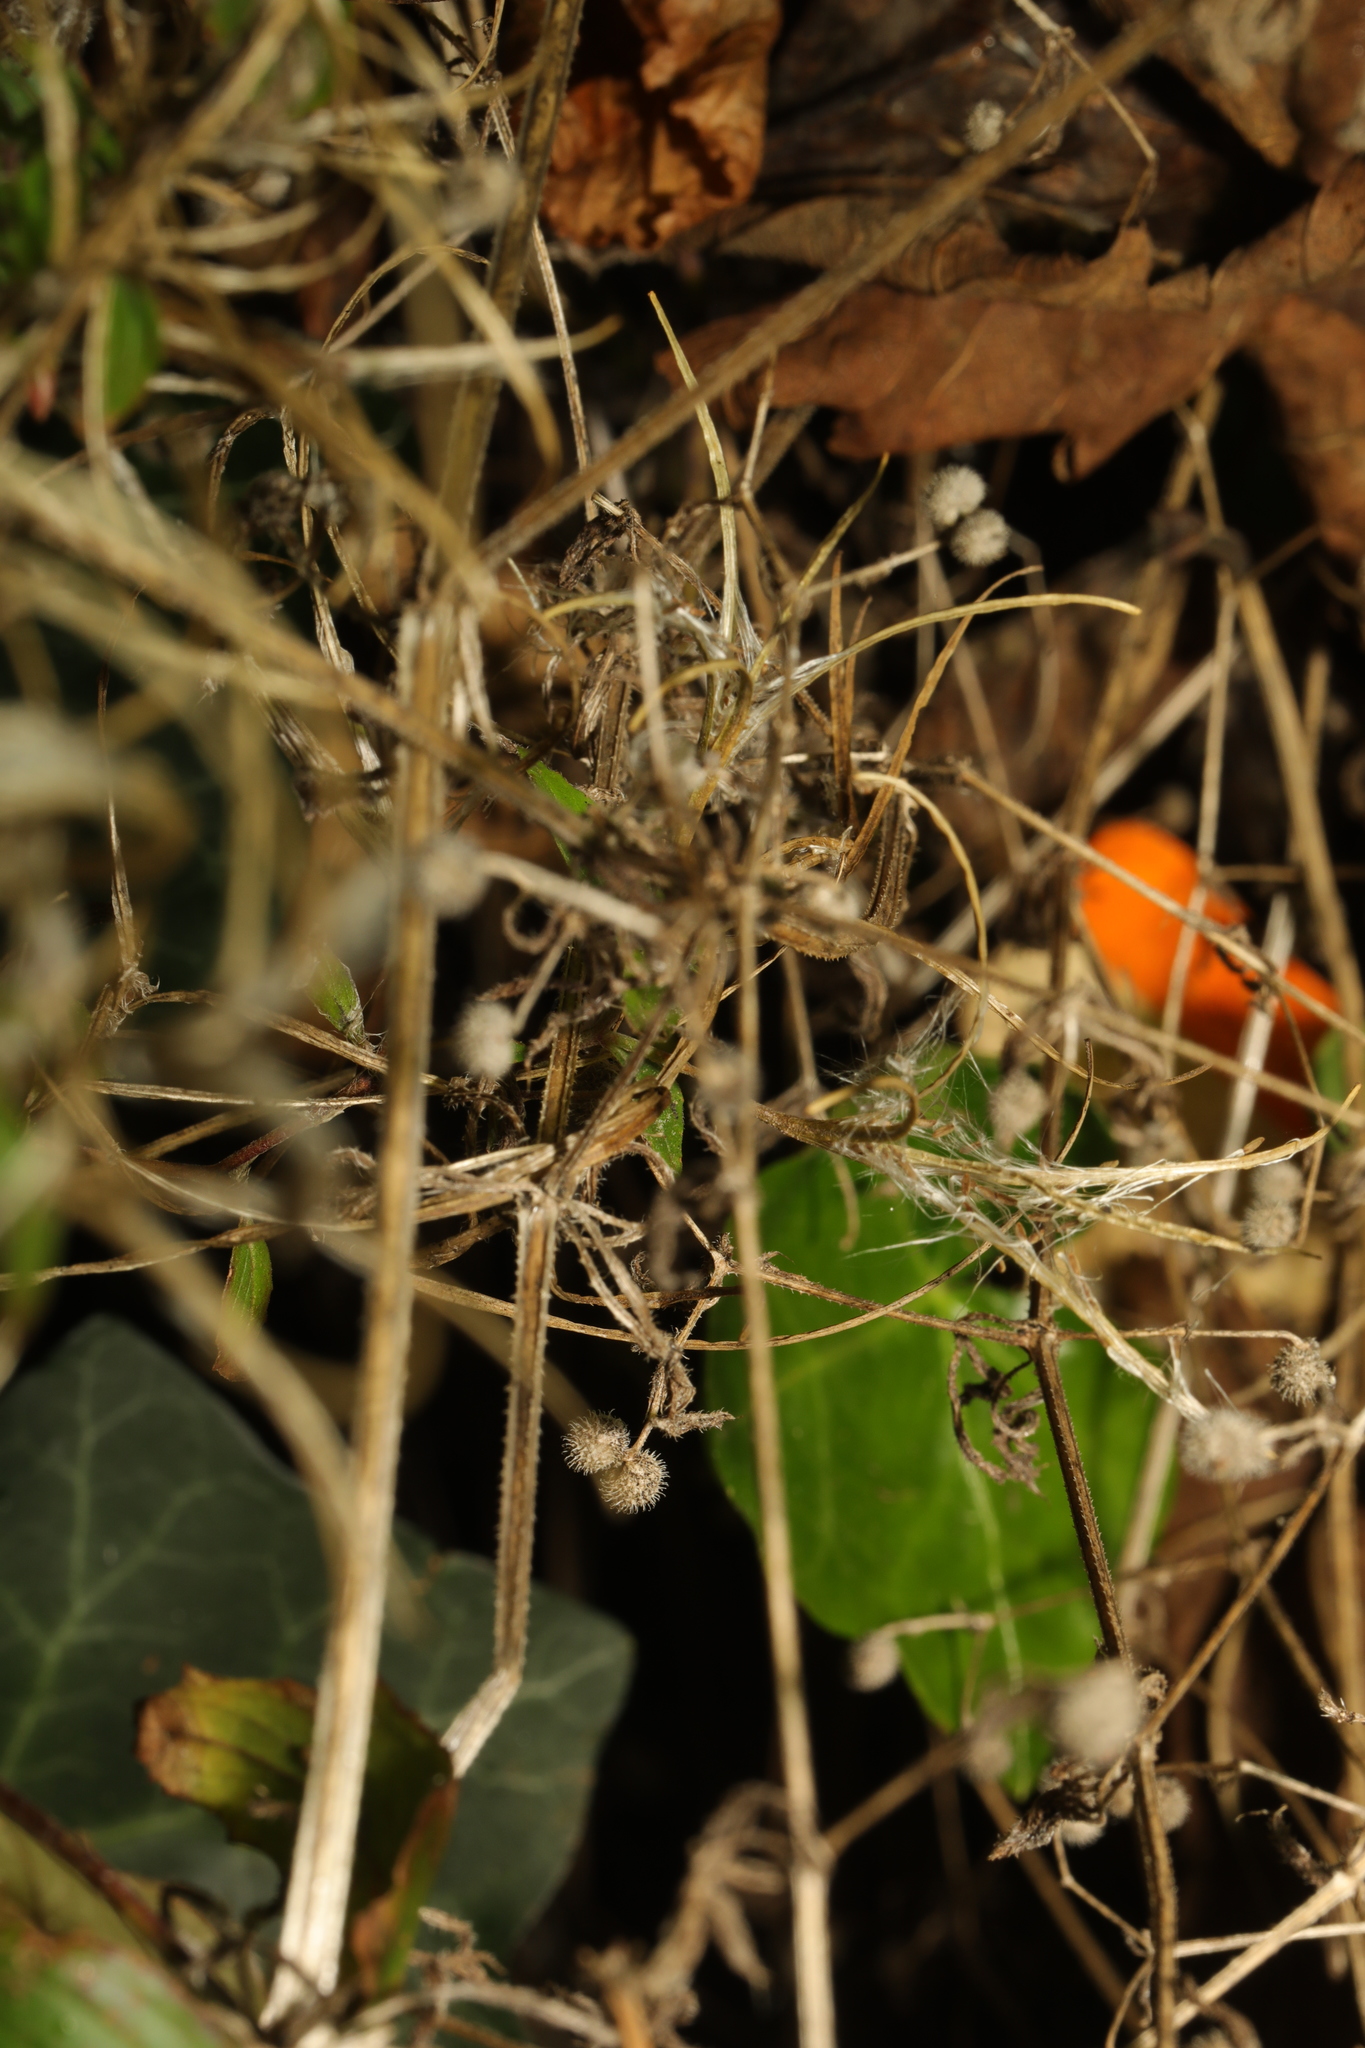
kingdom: Plantae
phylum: Tracheophyta
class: Magnoliopsida
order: Gentianales
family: Rubiaceae
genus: Galium
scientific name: Galium aparine
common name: Cleavers
